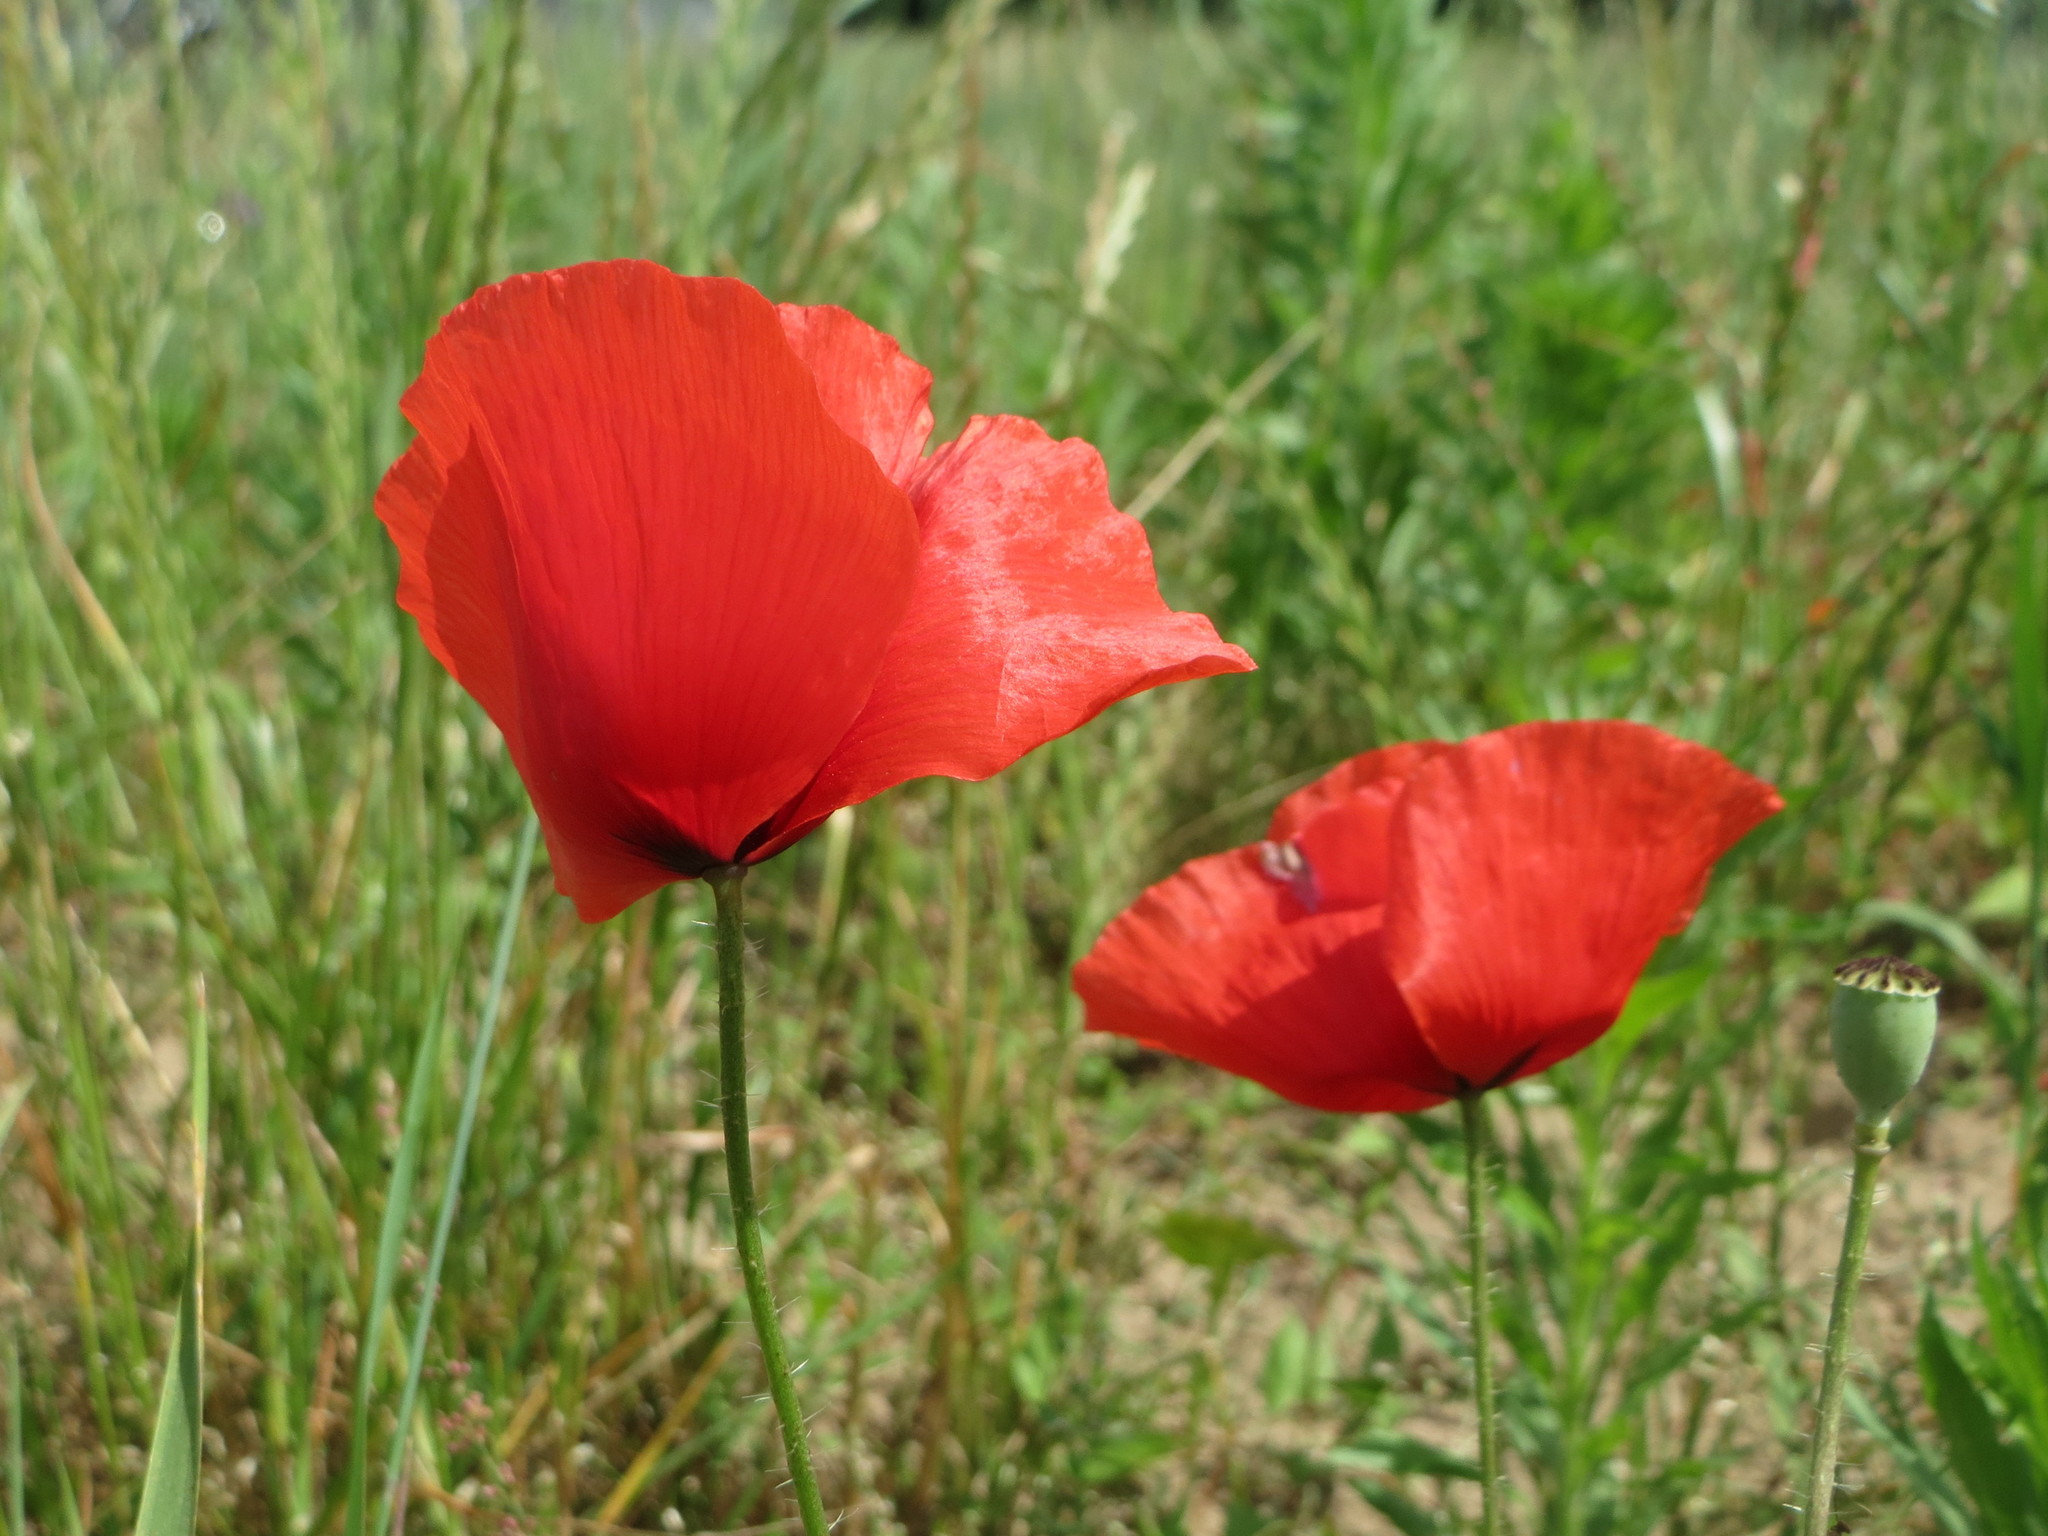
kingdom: Plantae
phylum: Tracheophyta
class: Magnoliopsida
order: Ranunculales
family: Papaveraceae
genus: Papaver
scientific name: Papaver rhoeas
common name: Corn poppy
